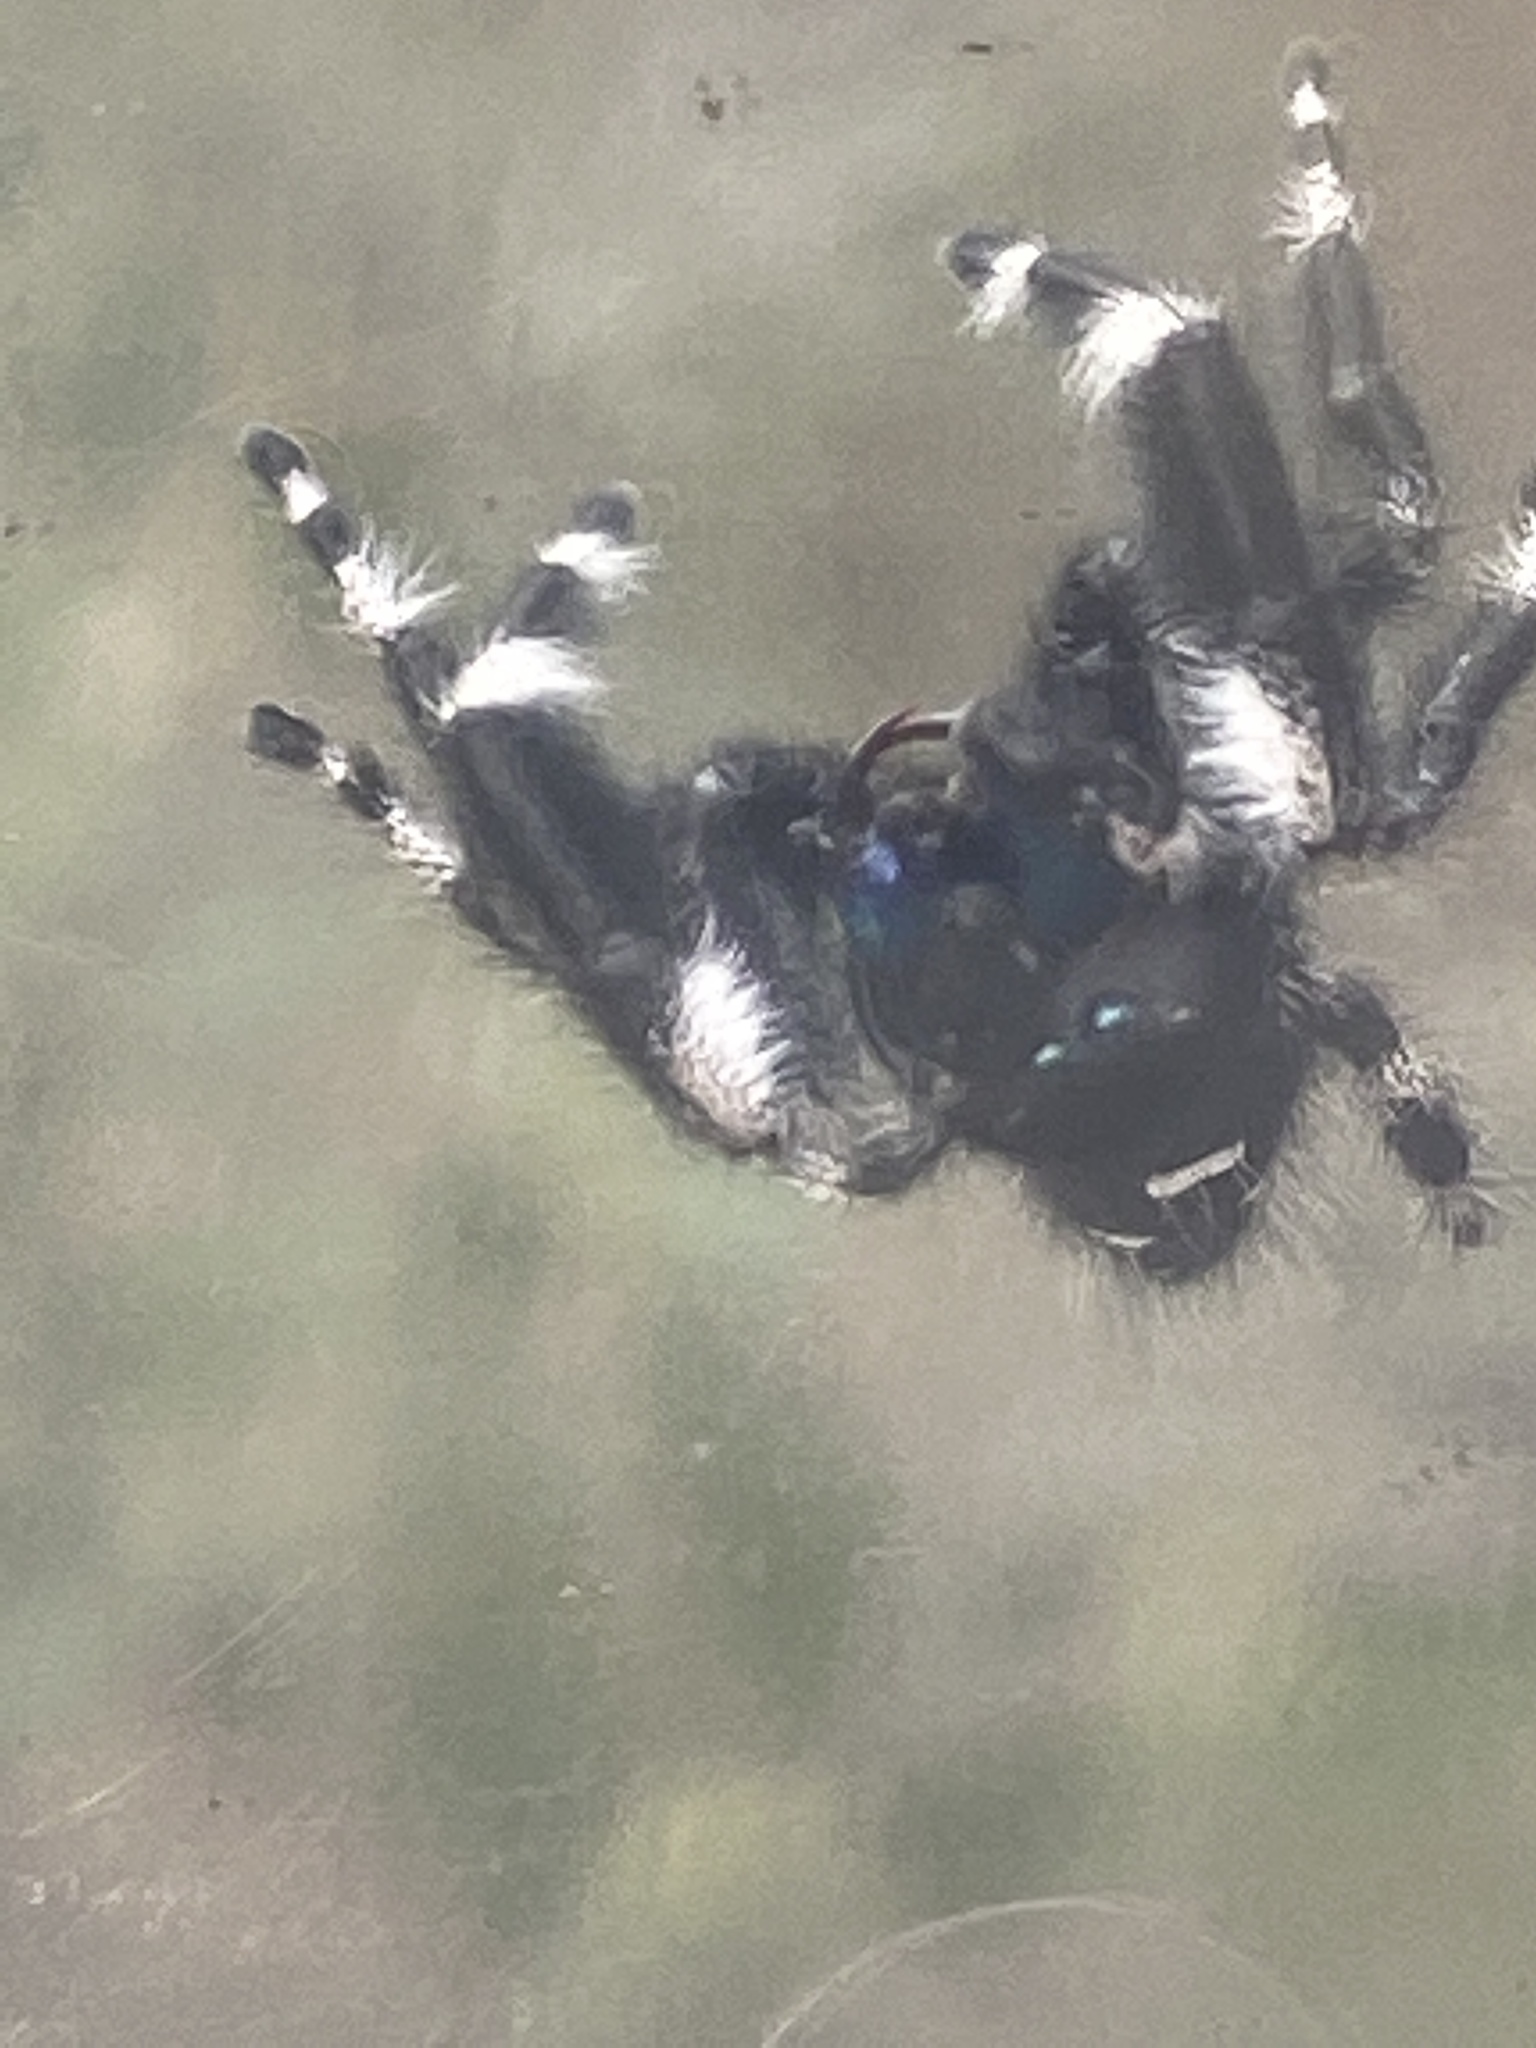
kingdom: Animalia
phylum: Arthropoda
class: Arachnida
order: Araneae
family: Salticidae
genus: Phidippus
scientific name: Phidippus audax
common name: Bold jumper
